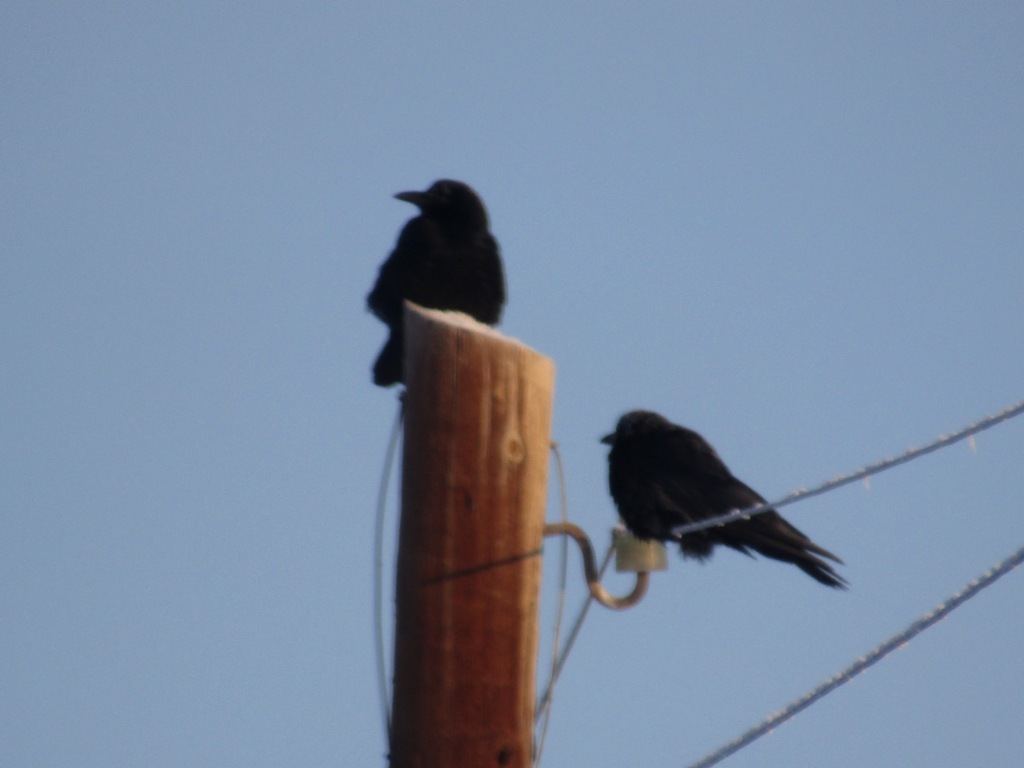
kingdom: Animalia
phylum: Chordata
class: Aves
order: Passeriformes
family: Corvidae
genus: Corvus
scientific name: Corvus corone
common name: Carrion crow
